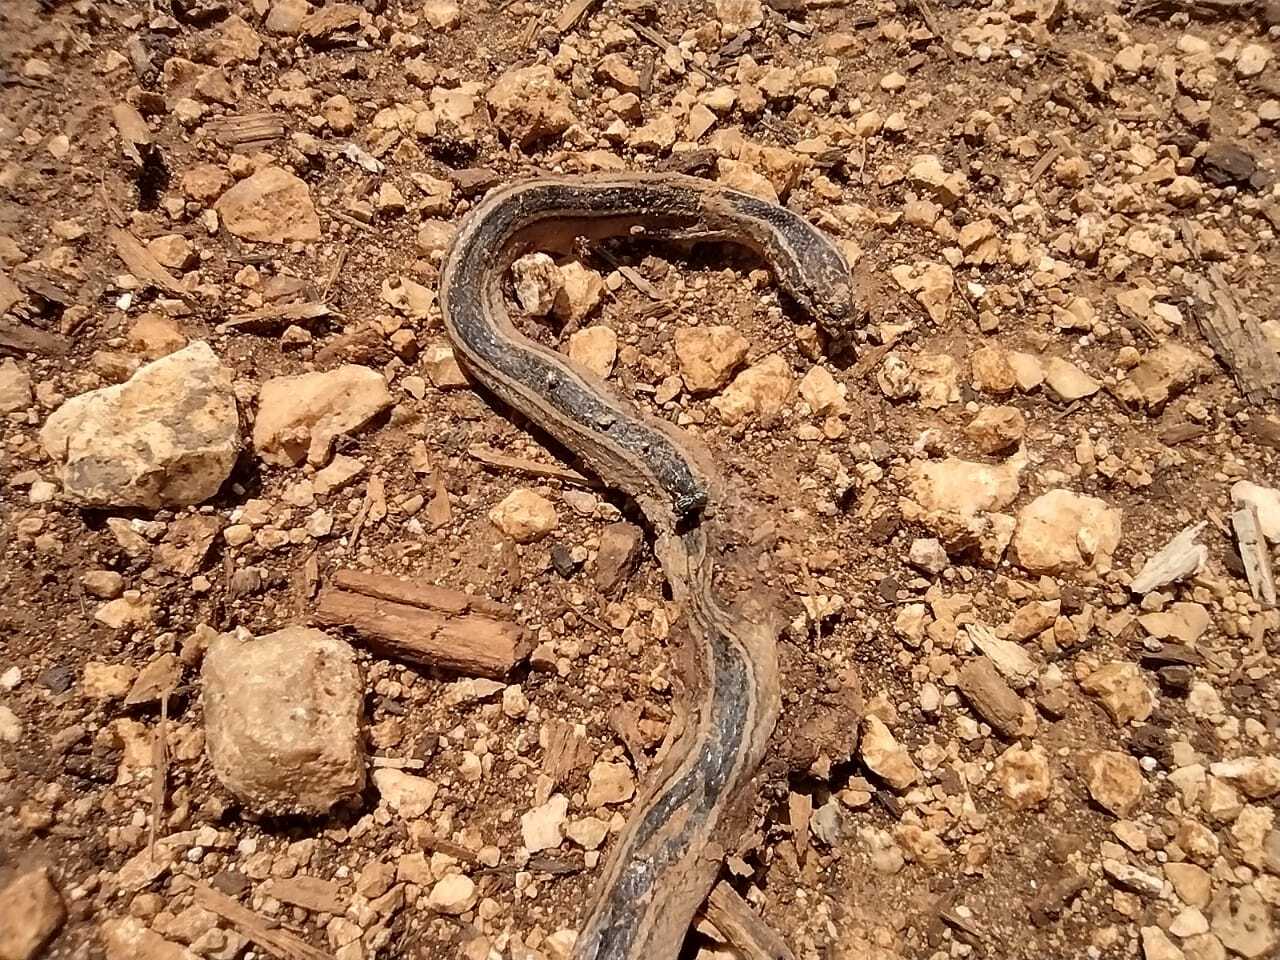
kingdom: Animalia
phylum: Chordata
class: Squamata
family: Colubridae
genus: Coniophanes
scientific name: Coniophanes schmidti
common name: Faded black-striped snake
